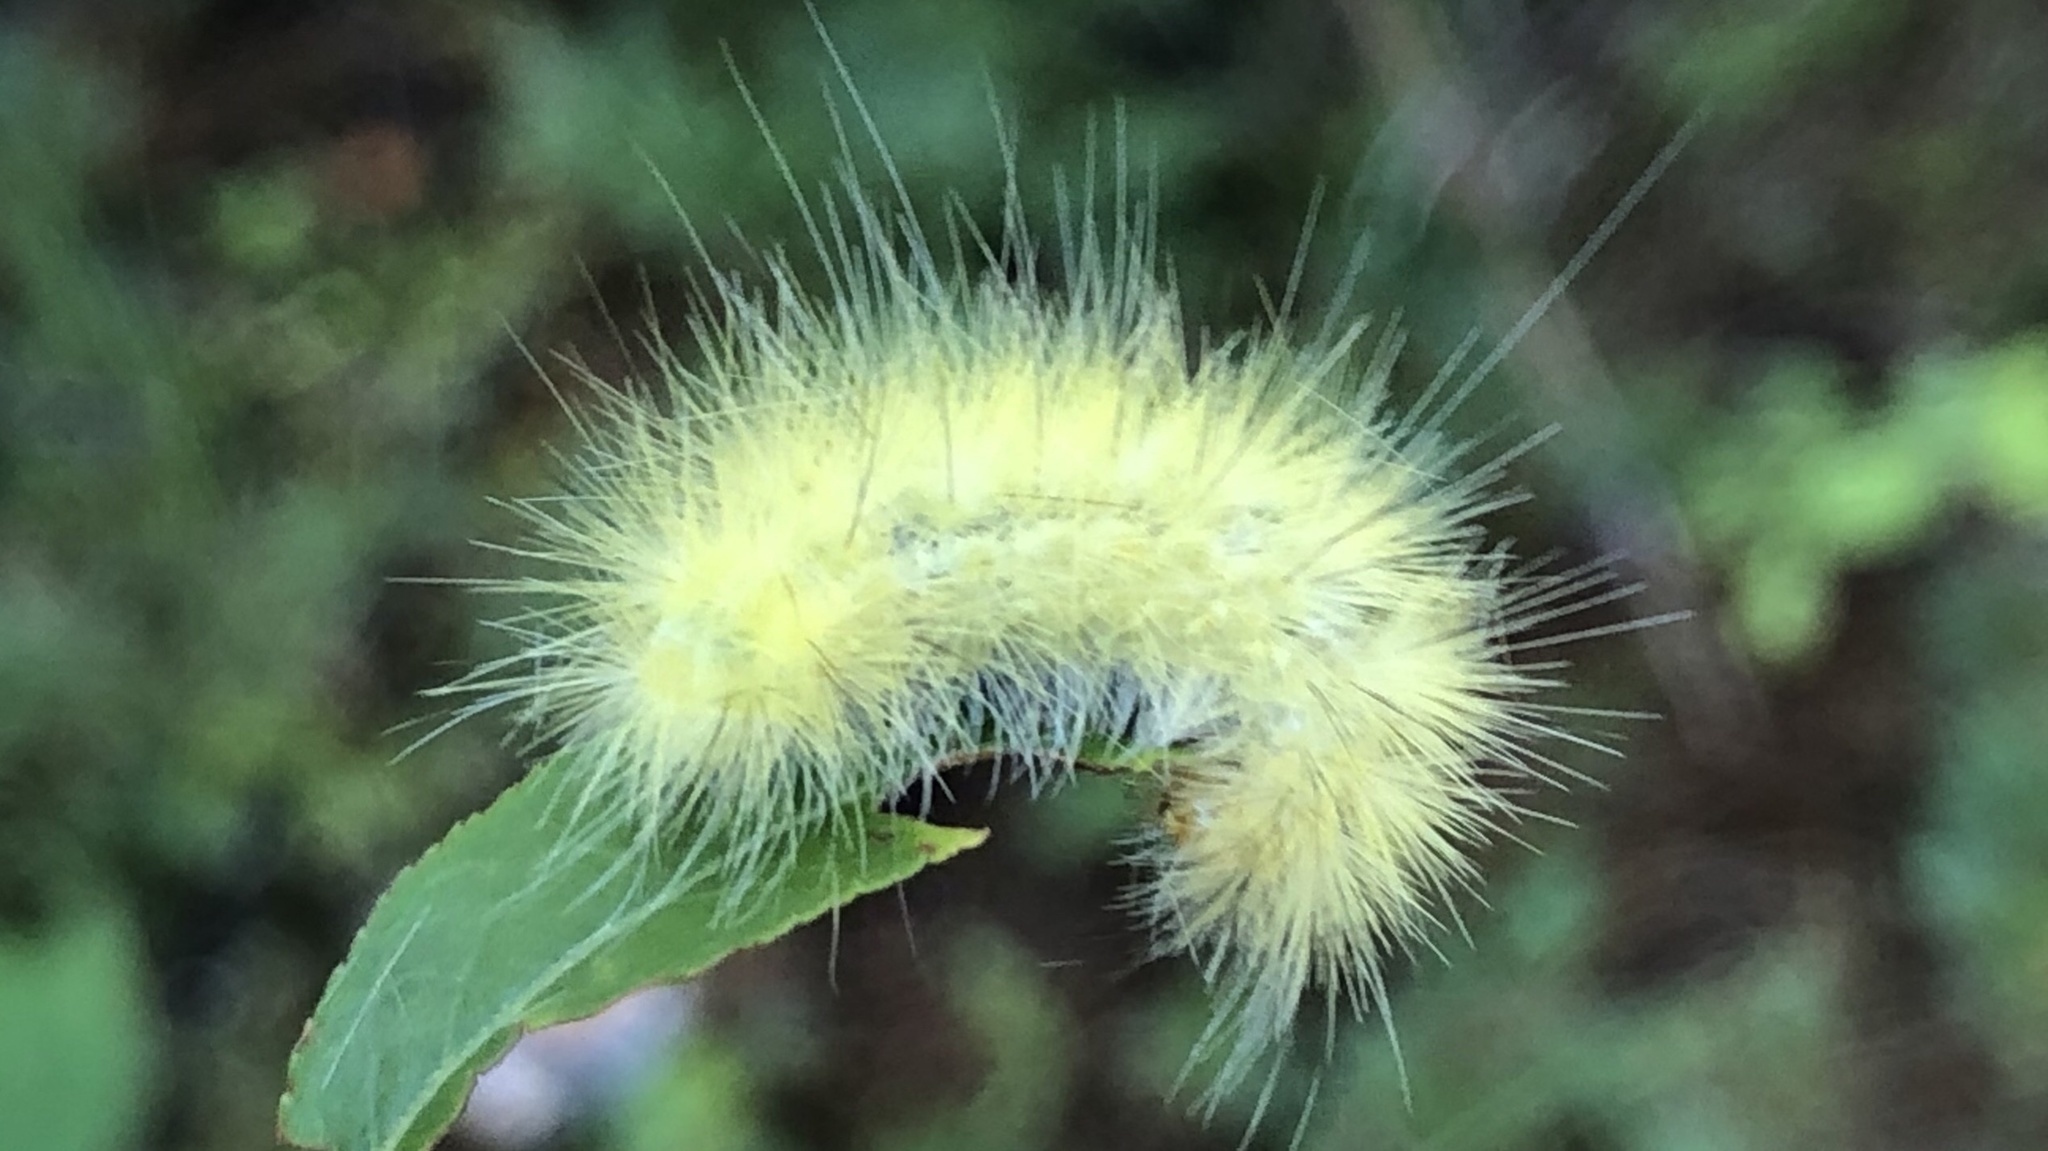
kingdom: Animalia
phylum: Arthropoda
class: Insecta
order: Lepidoptera
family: Erebidae
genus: Spilosoma
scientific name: Spilosoma virginica
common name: Virginia tiger moth
